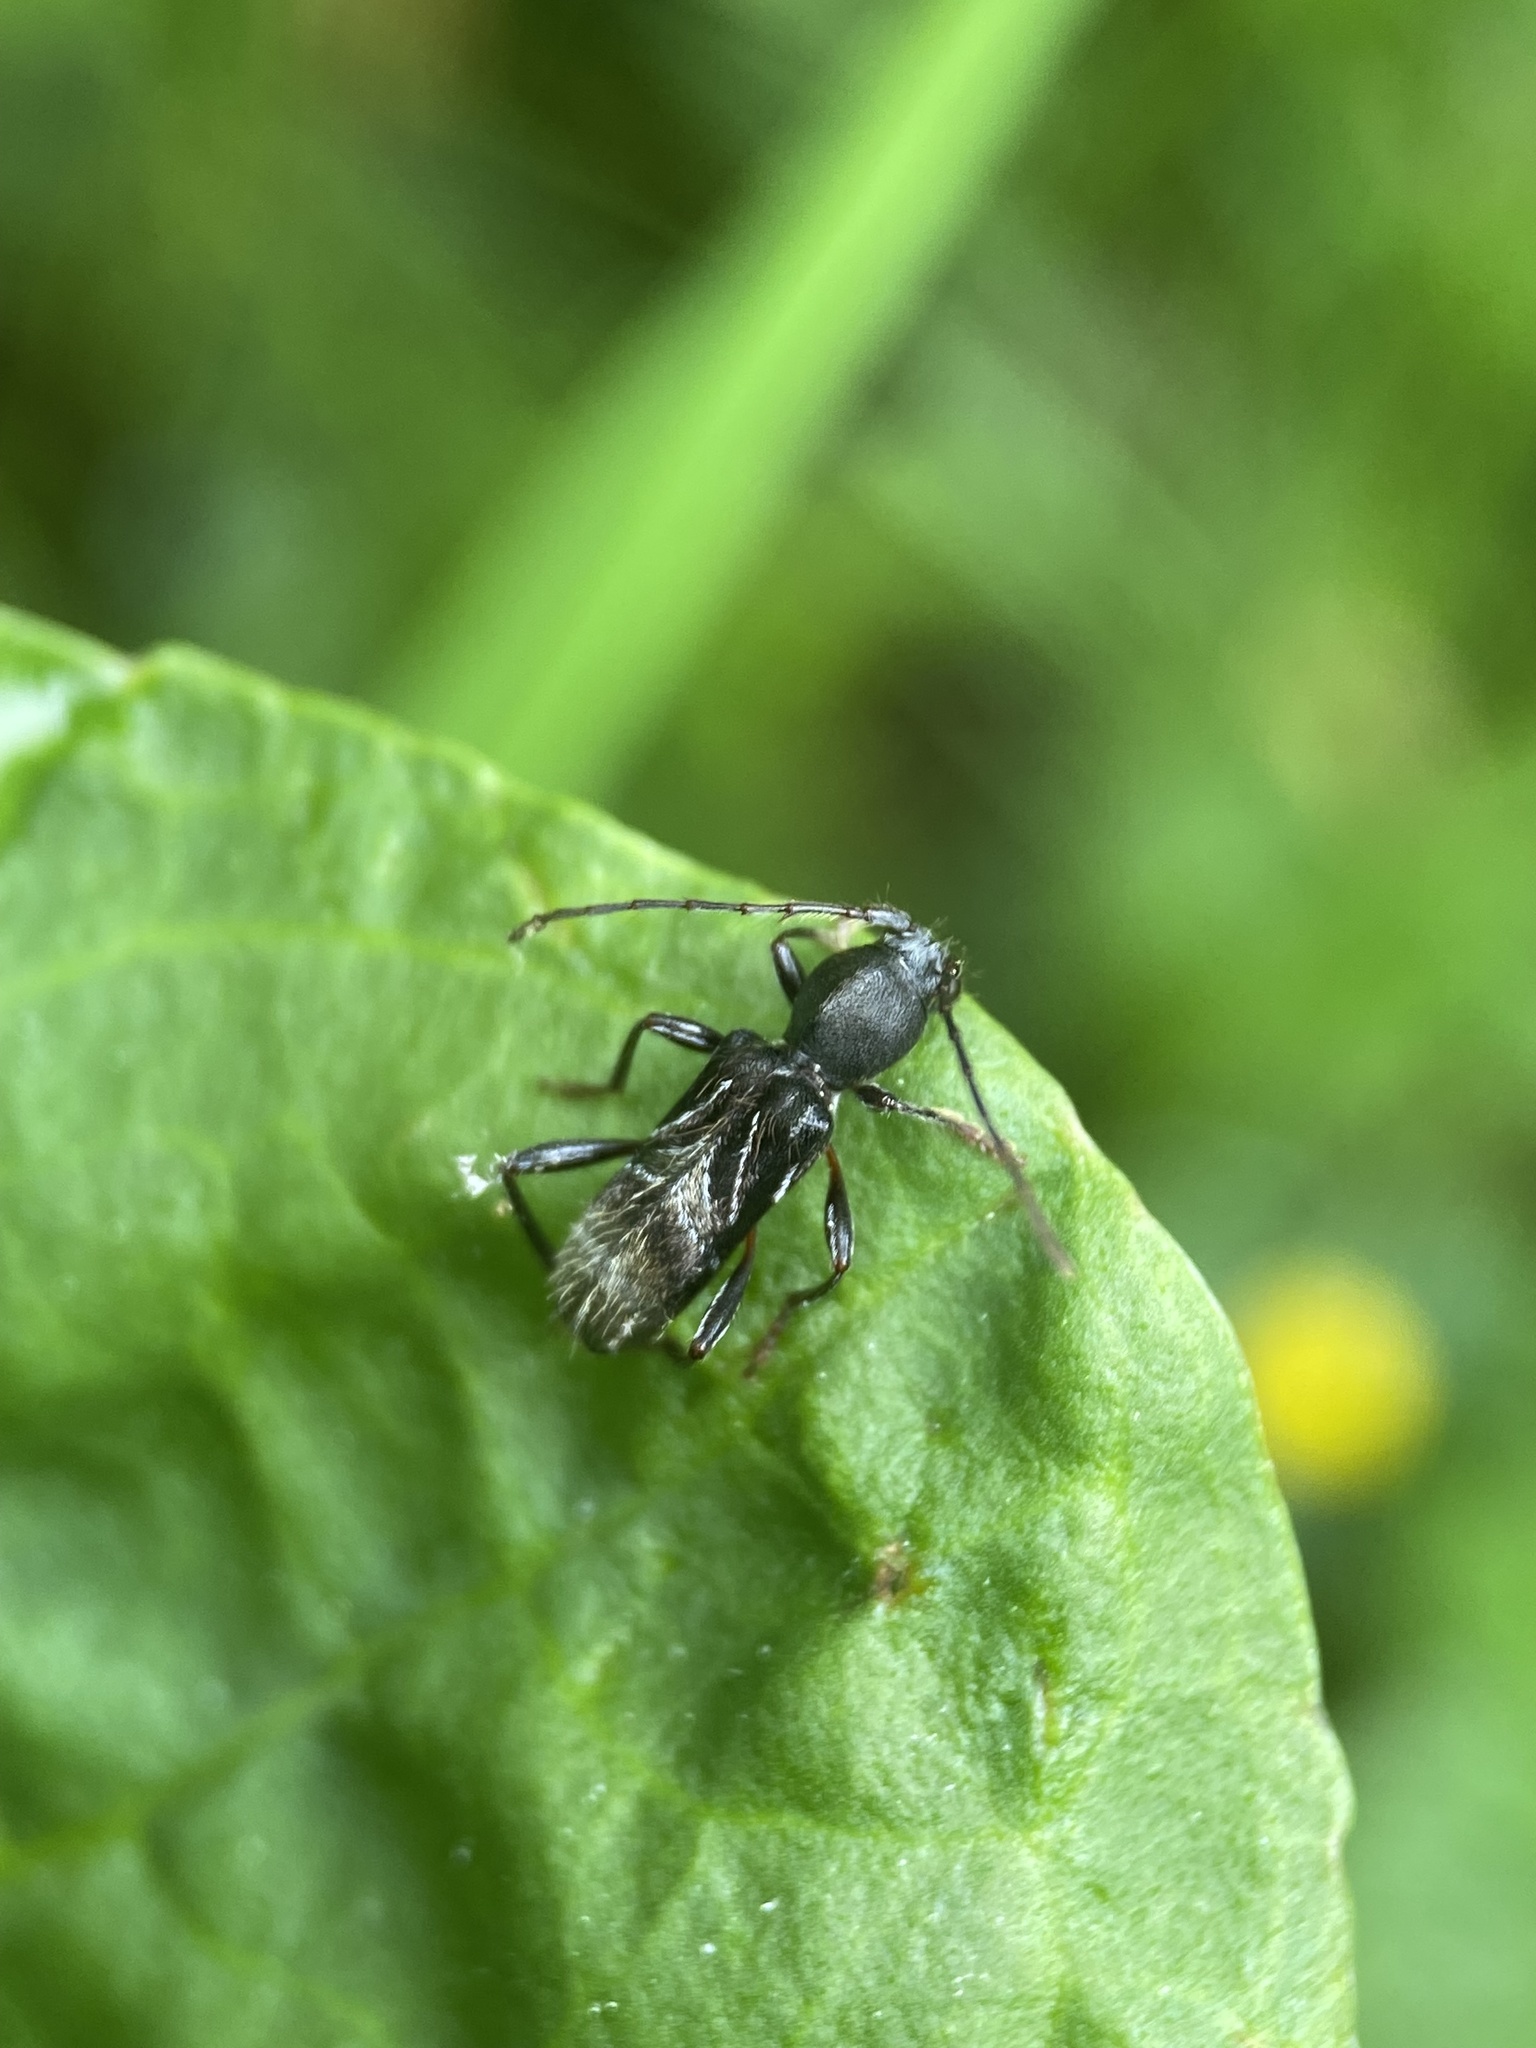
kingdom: Animalia
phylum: Arthropoda
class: Insecta
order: Coleoptera
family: Cerambycidae
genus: Cyrtophorus
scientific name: Cyrtophorus verrucosus
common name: Ant-like longhorn beetle
